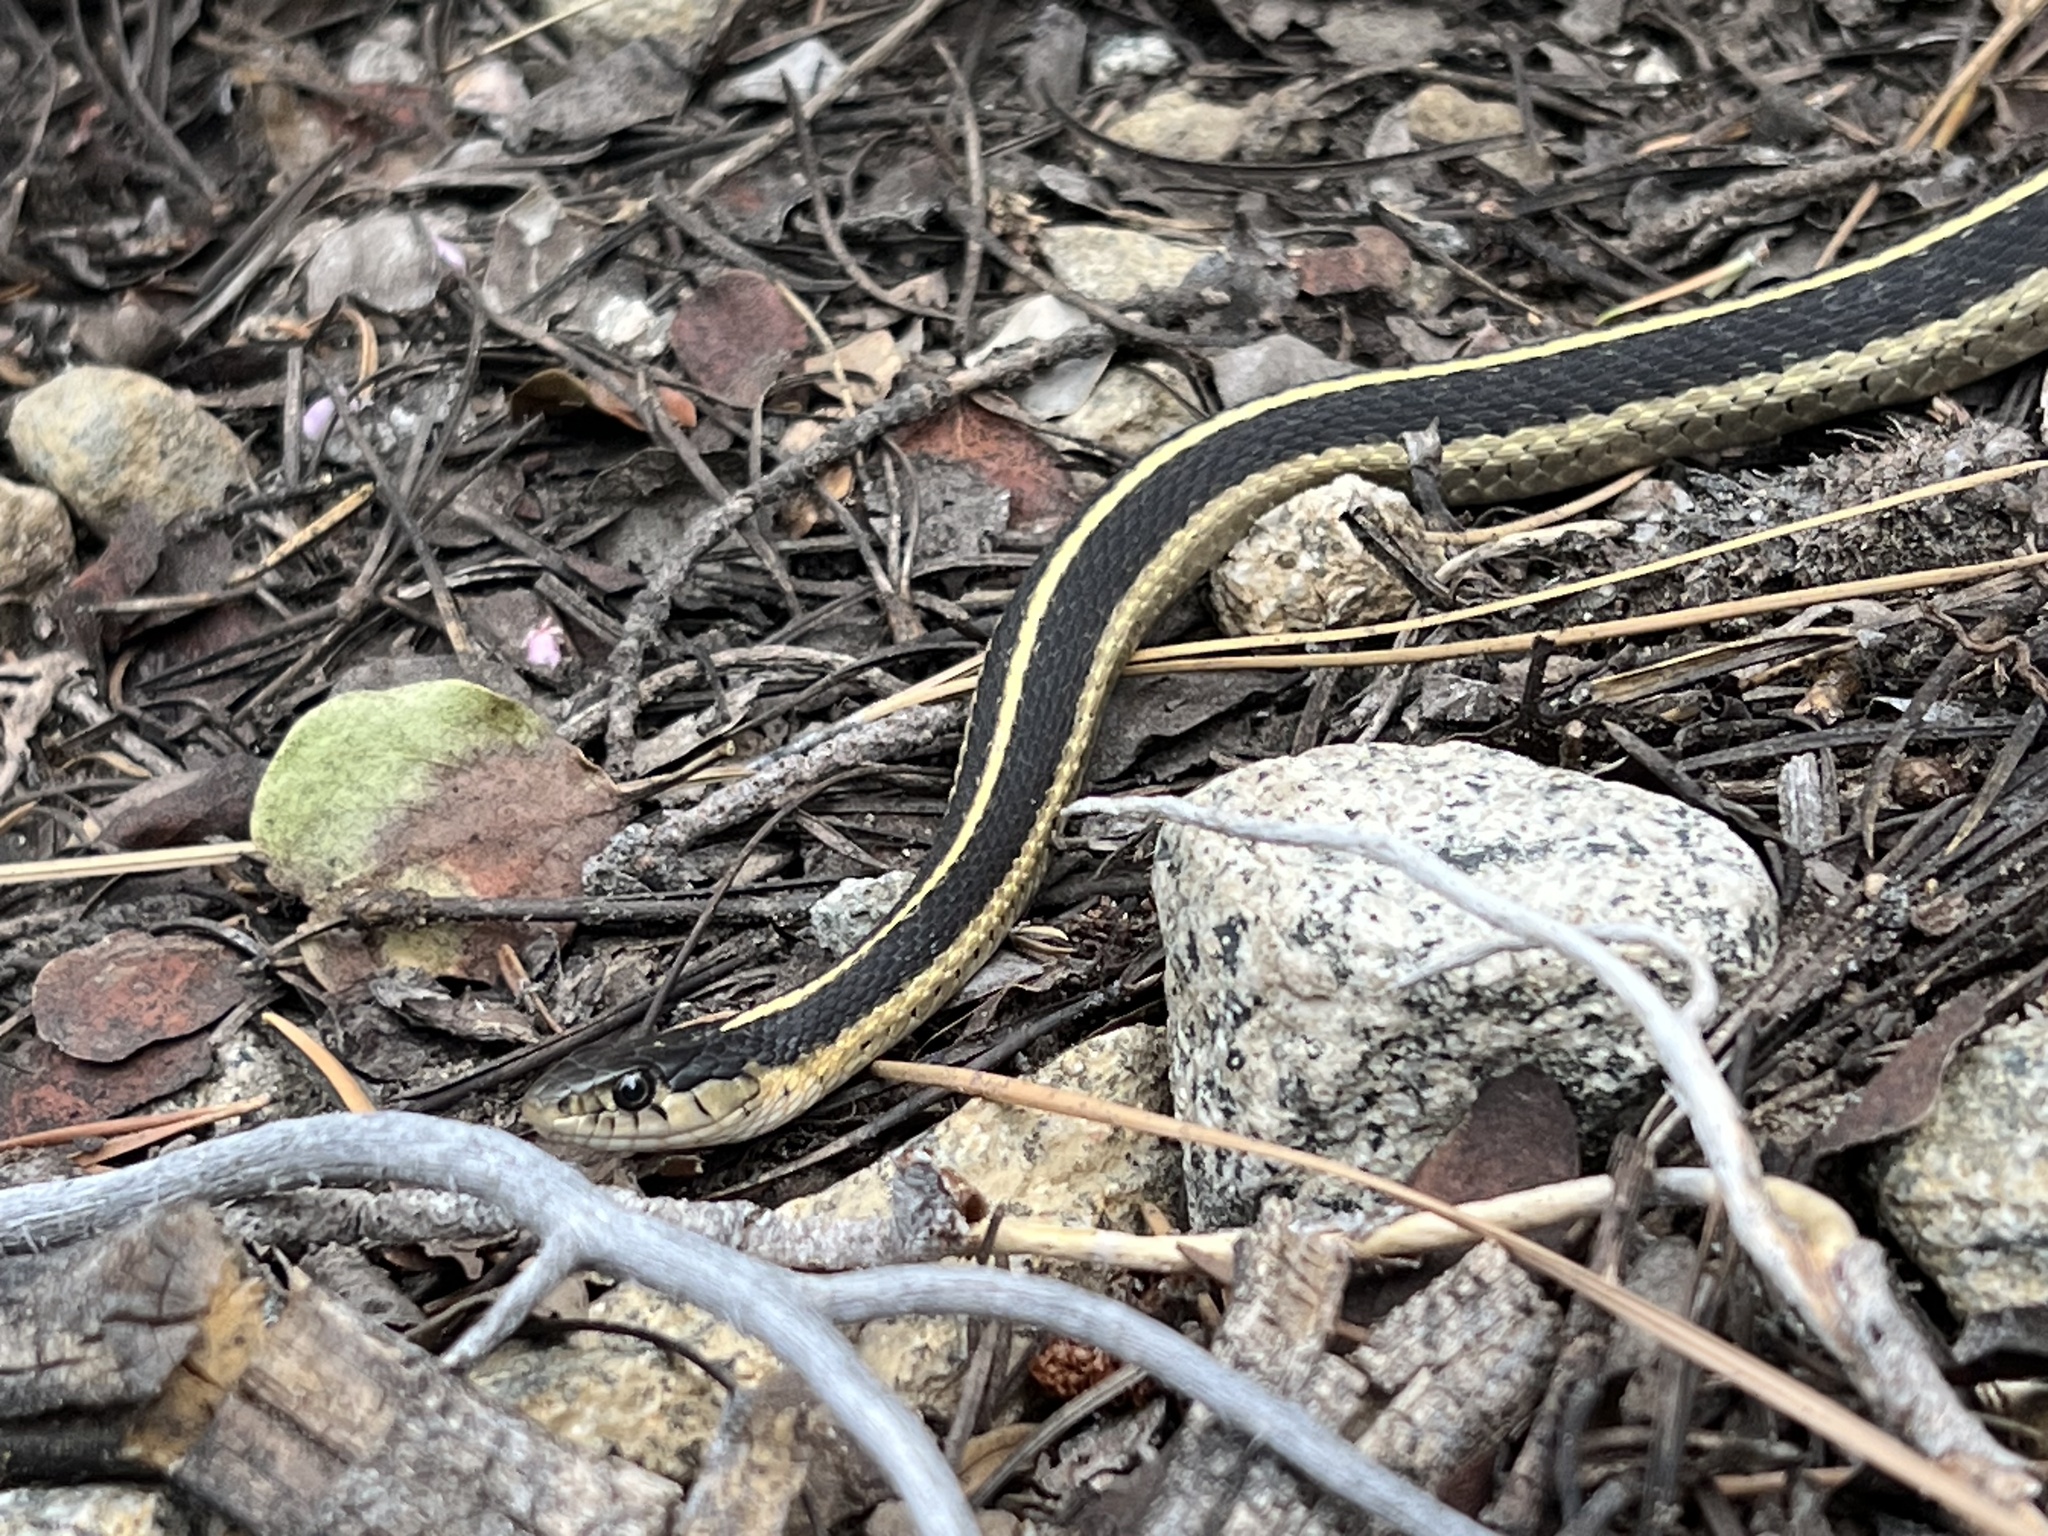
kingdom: Animalia
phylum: Chordata
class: Squamata
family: Colubridae
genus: Thamnophis
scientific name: Thamnophis elegans
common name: Western terrestrial garter snake
